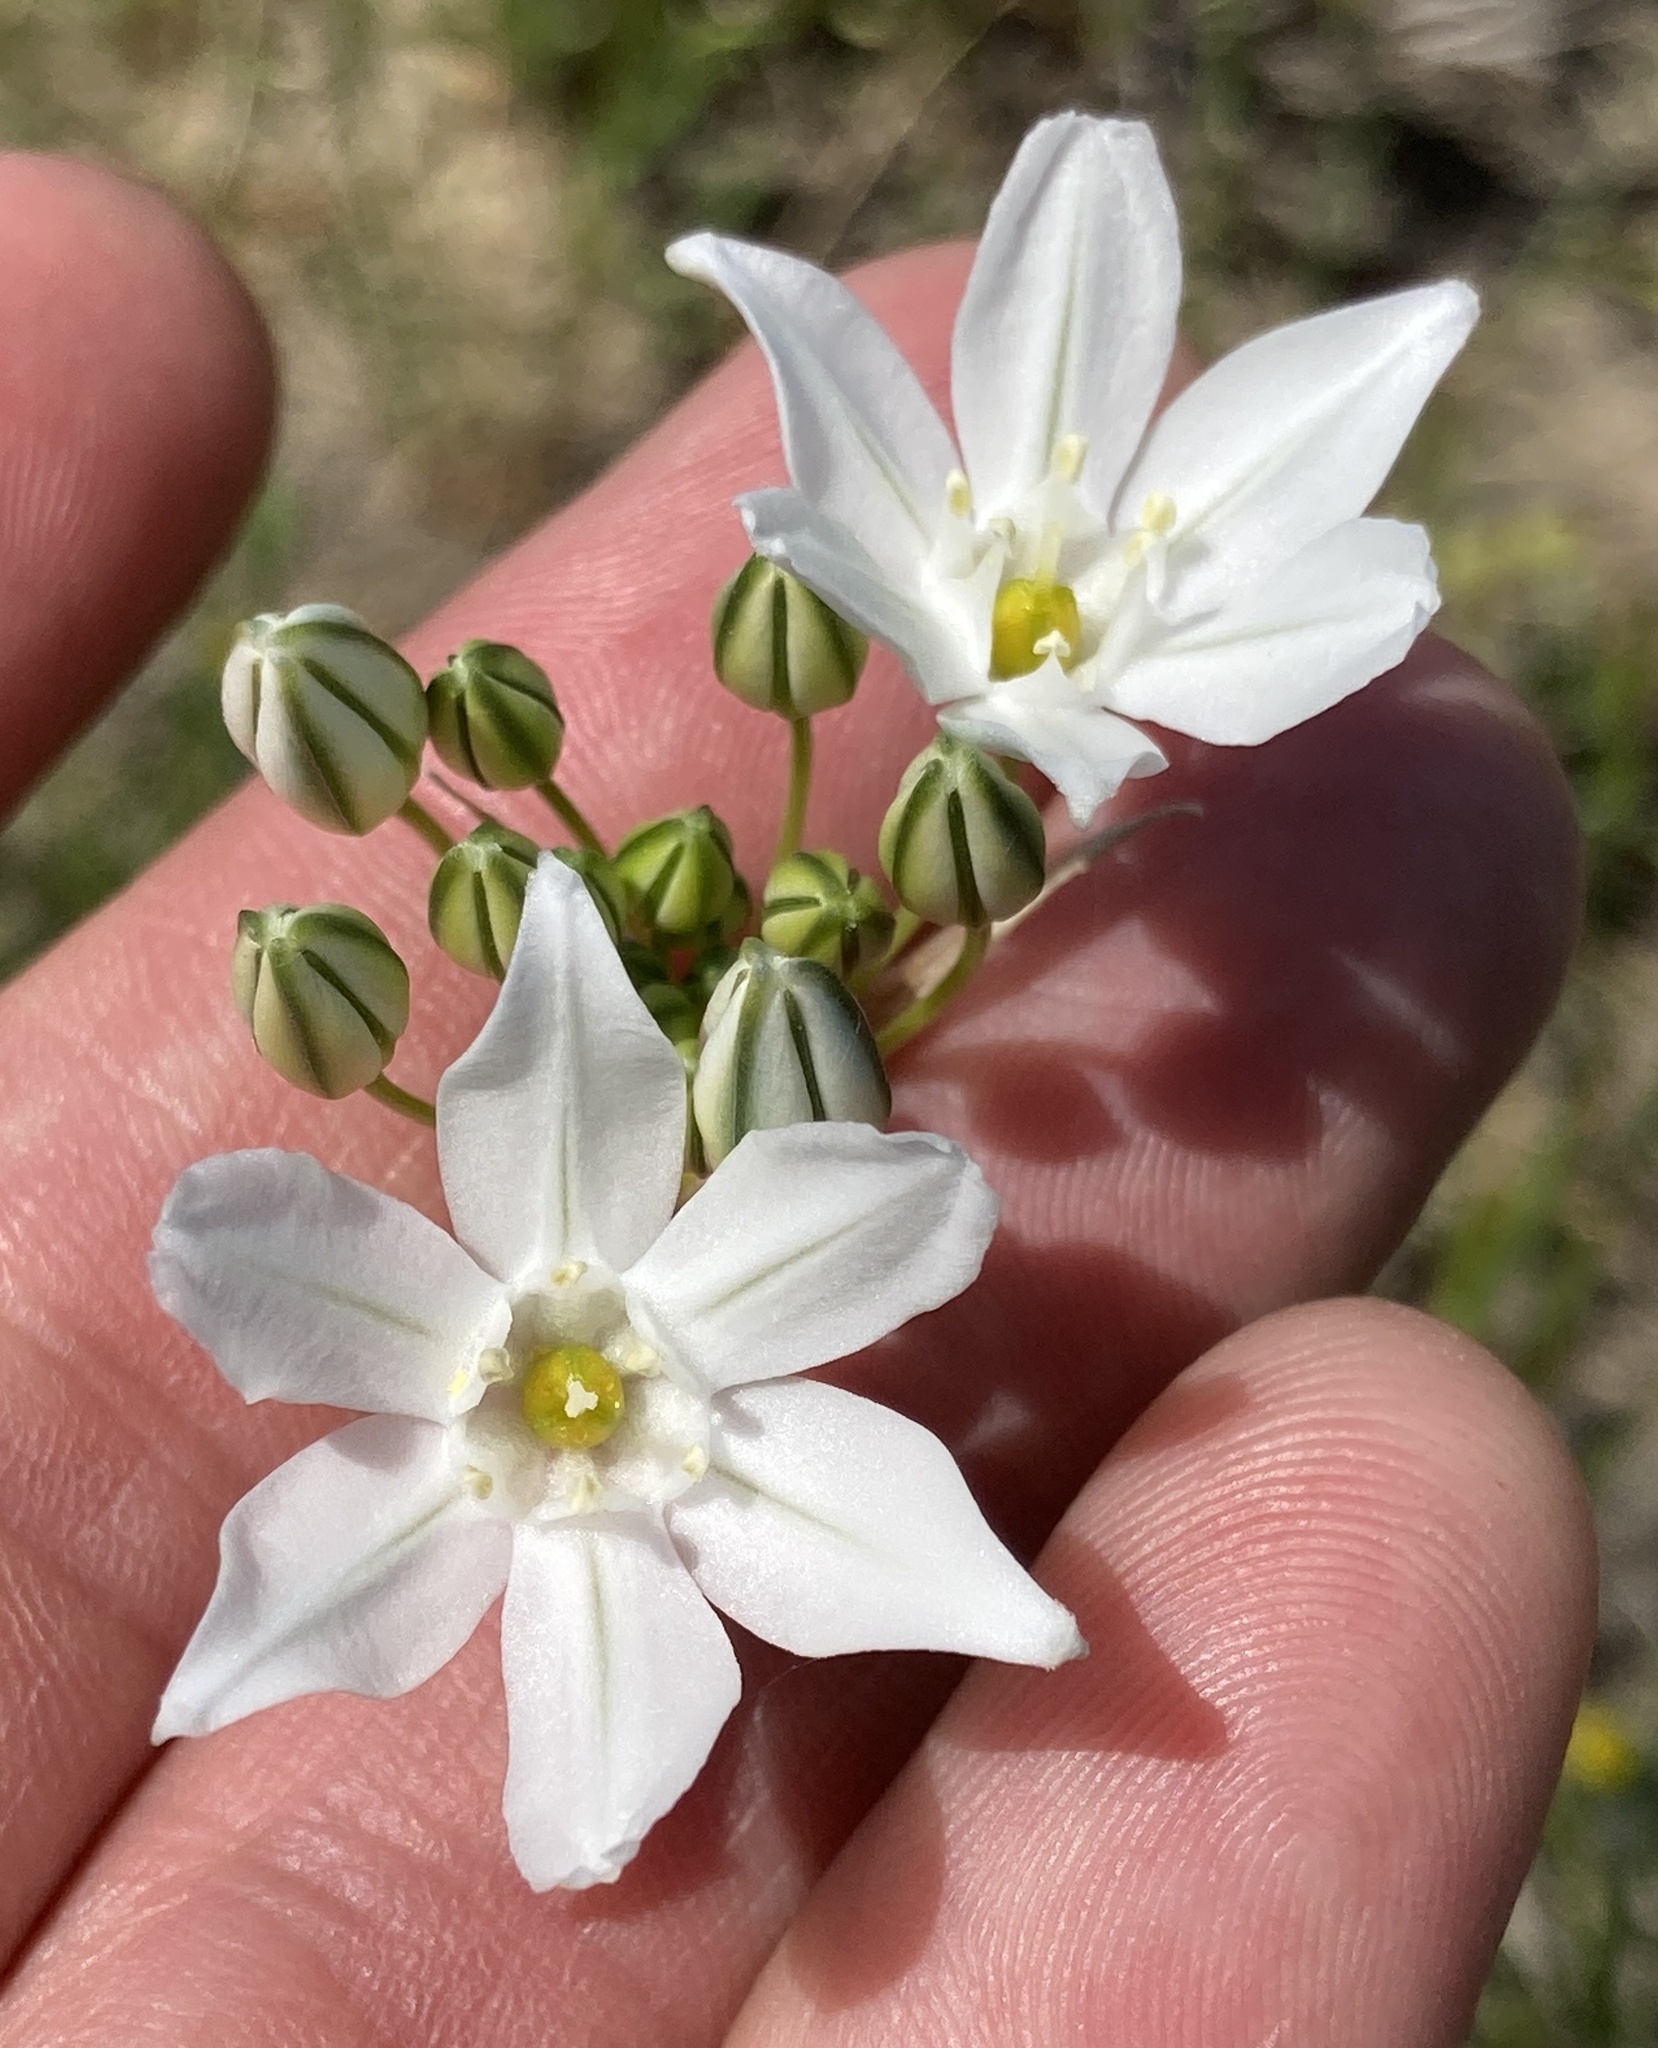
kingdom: Plantae
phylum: Tracheophyta
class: Liliopsida
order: Asparagales
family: Asparagaceae
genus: Triteleia
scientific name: Triteleia hyacinthina
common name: White brodiaea
